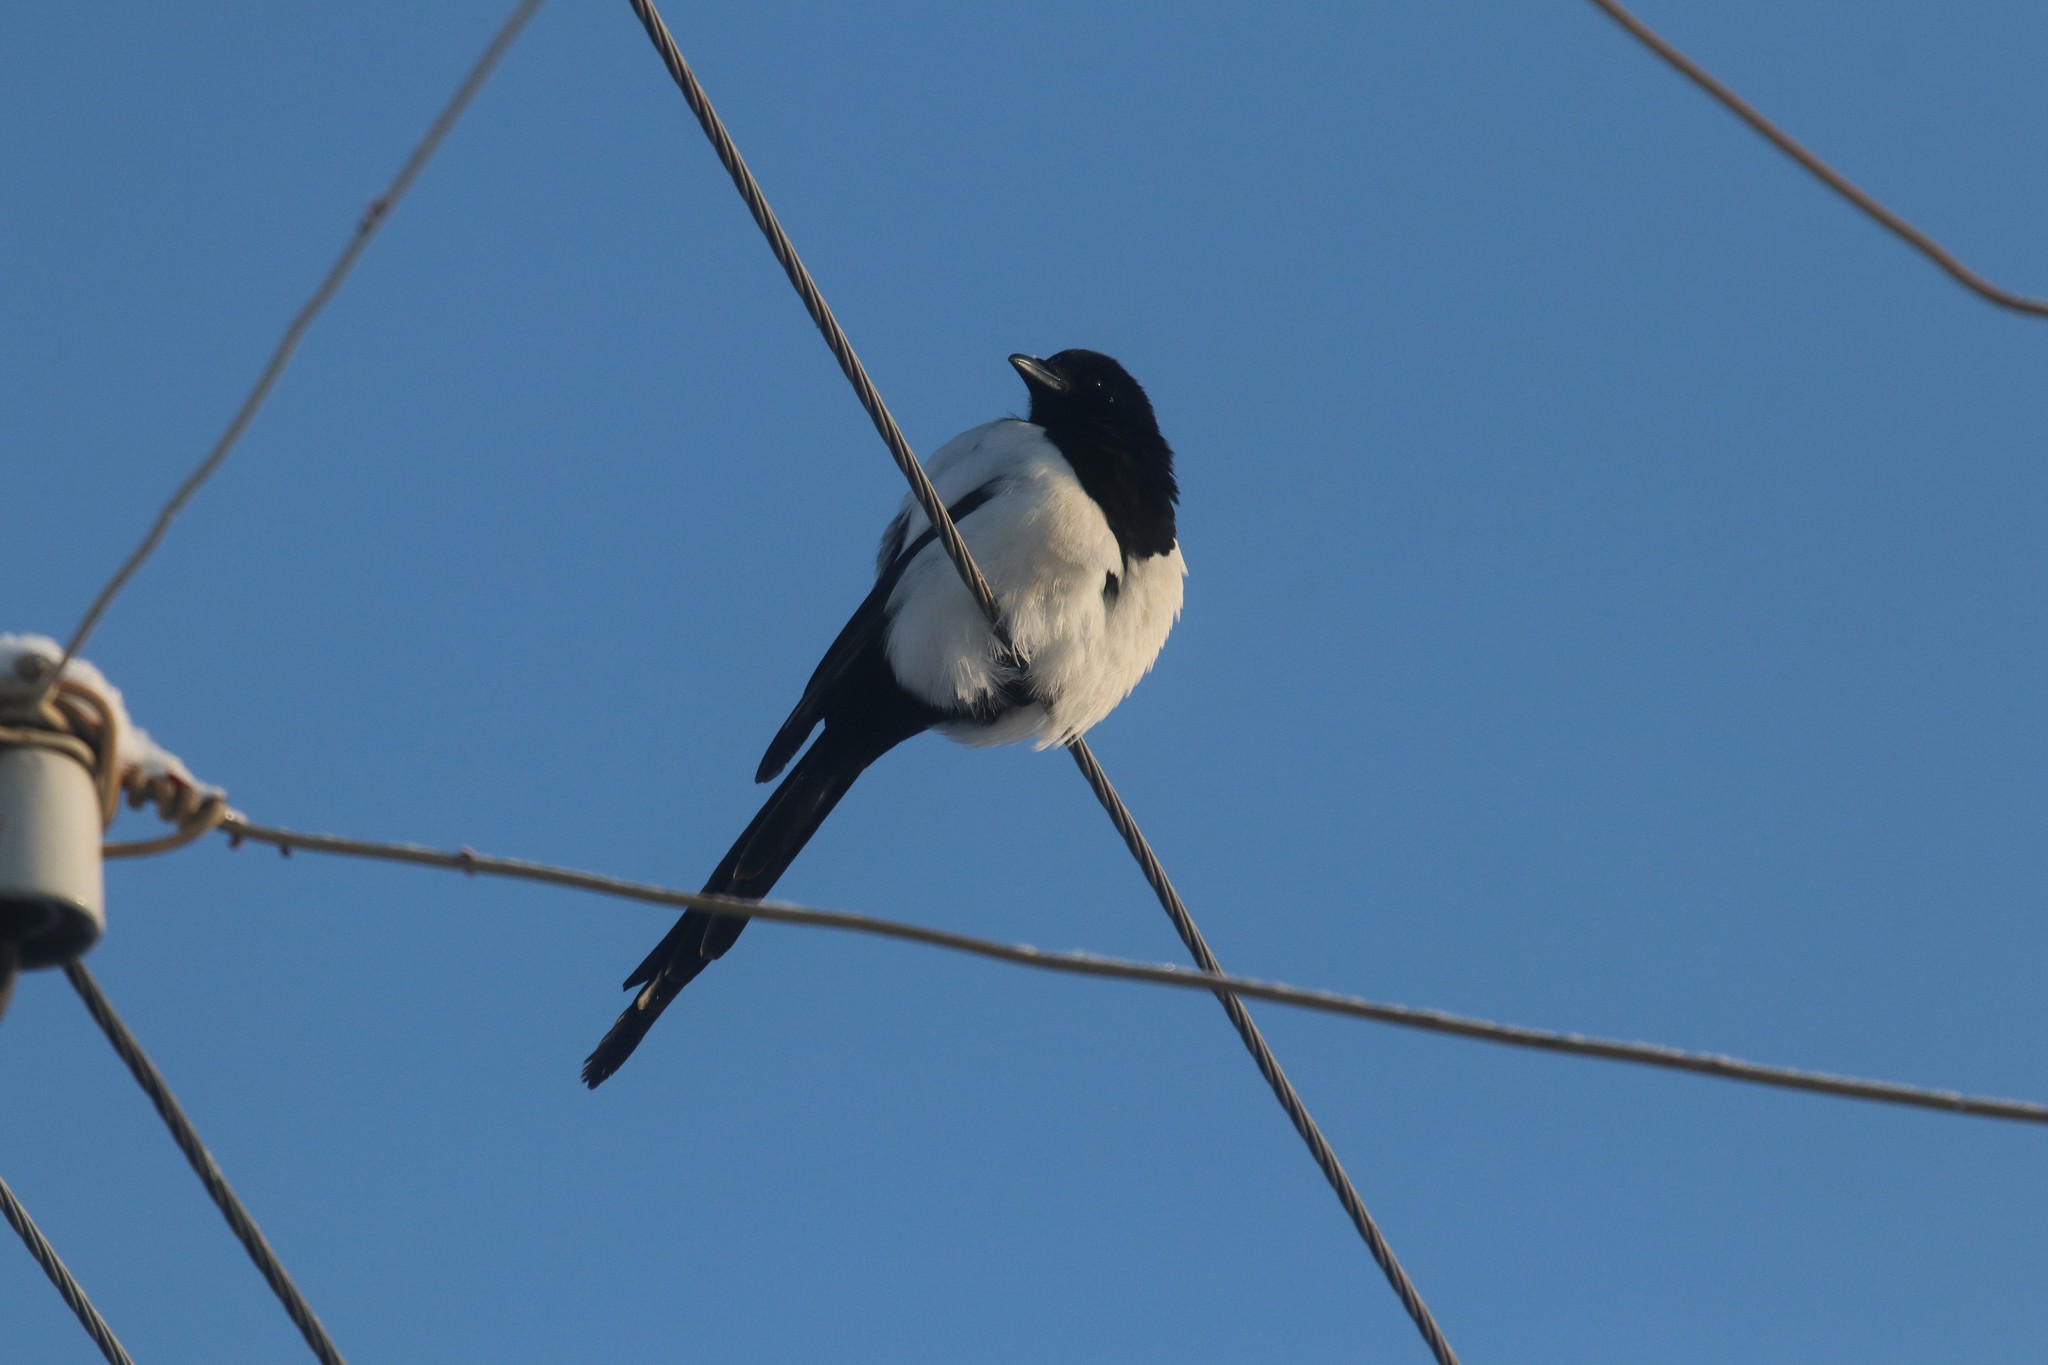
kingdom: Animalia
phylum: Chordata
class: Aves
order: Passeriformes
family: Corvidae
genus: Pica
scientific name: Pica pica
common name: Eurasian magpie
